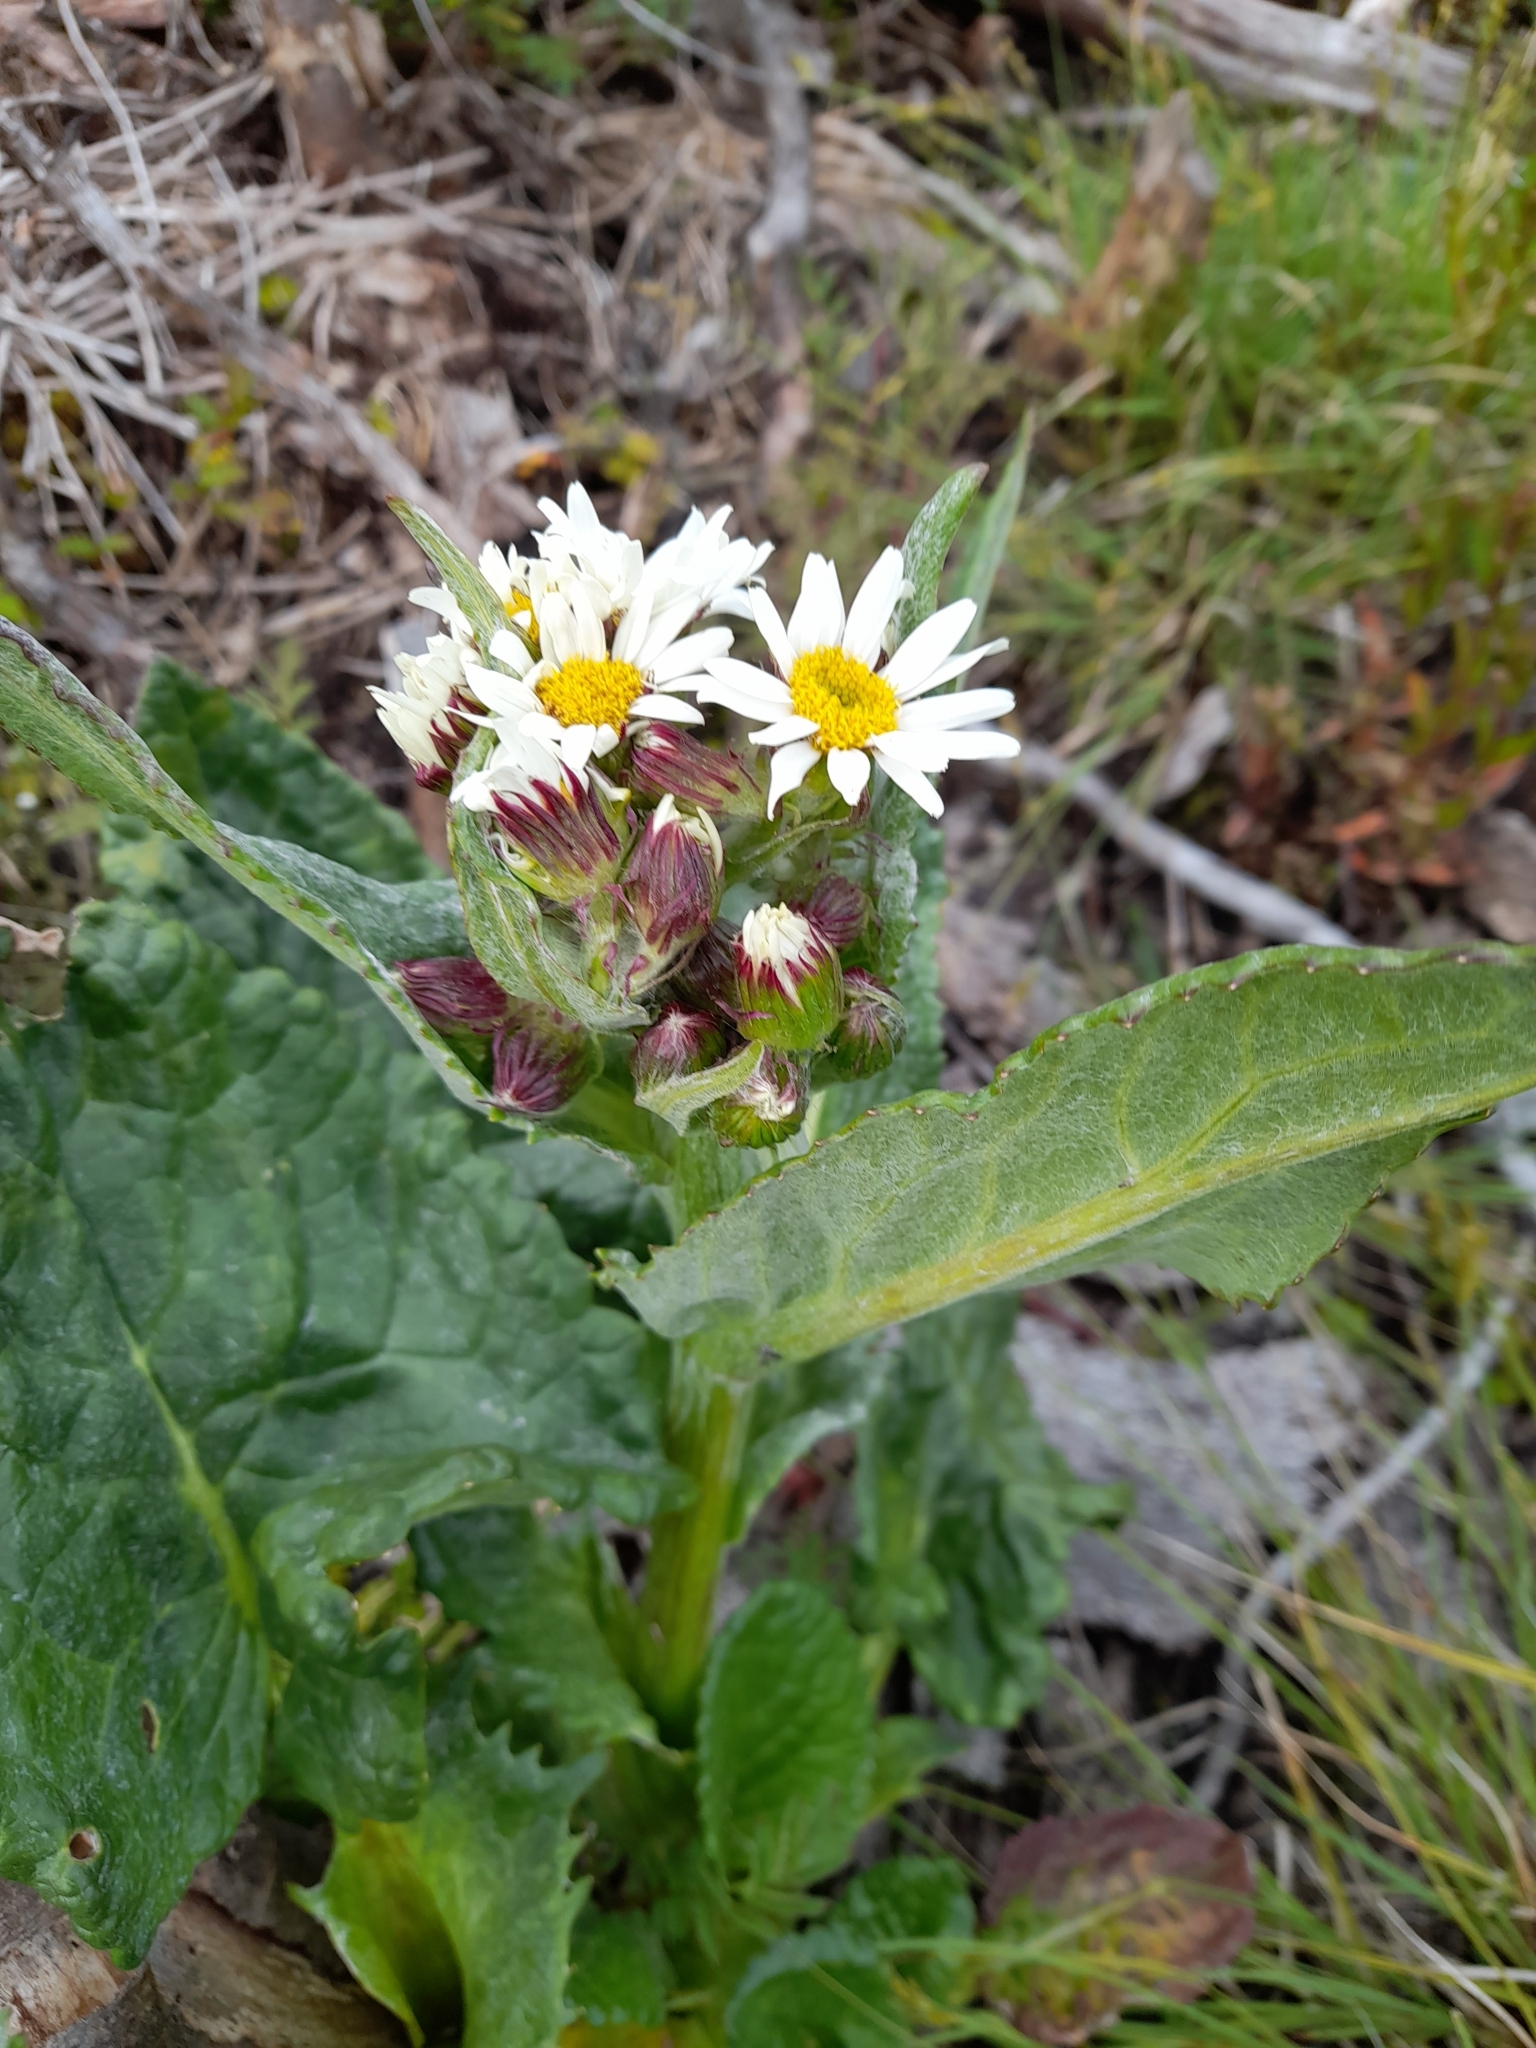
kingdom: Plantae
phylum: Tracheophyta
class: Magnoliopsida
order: Asterales
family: Asteraceae
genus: Senecio
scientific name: Senecio smithii
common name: Magellan ragwort
